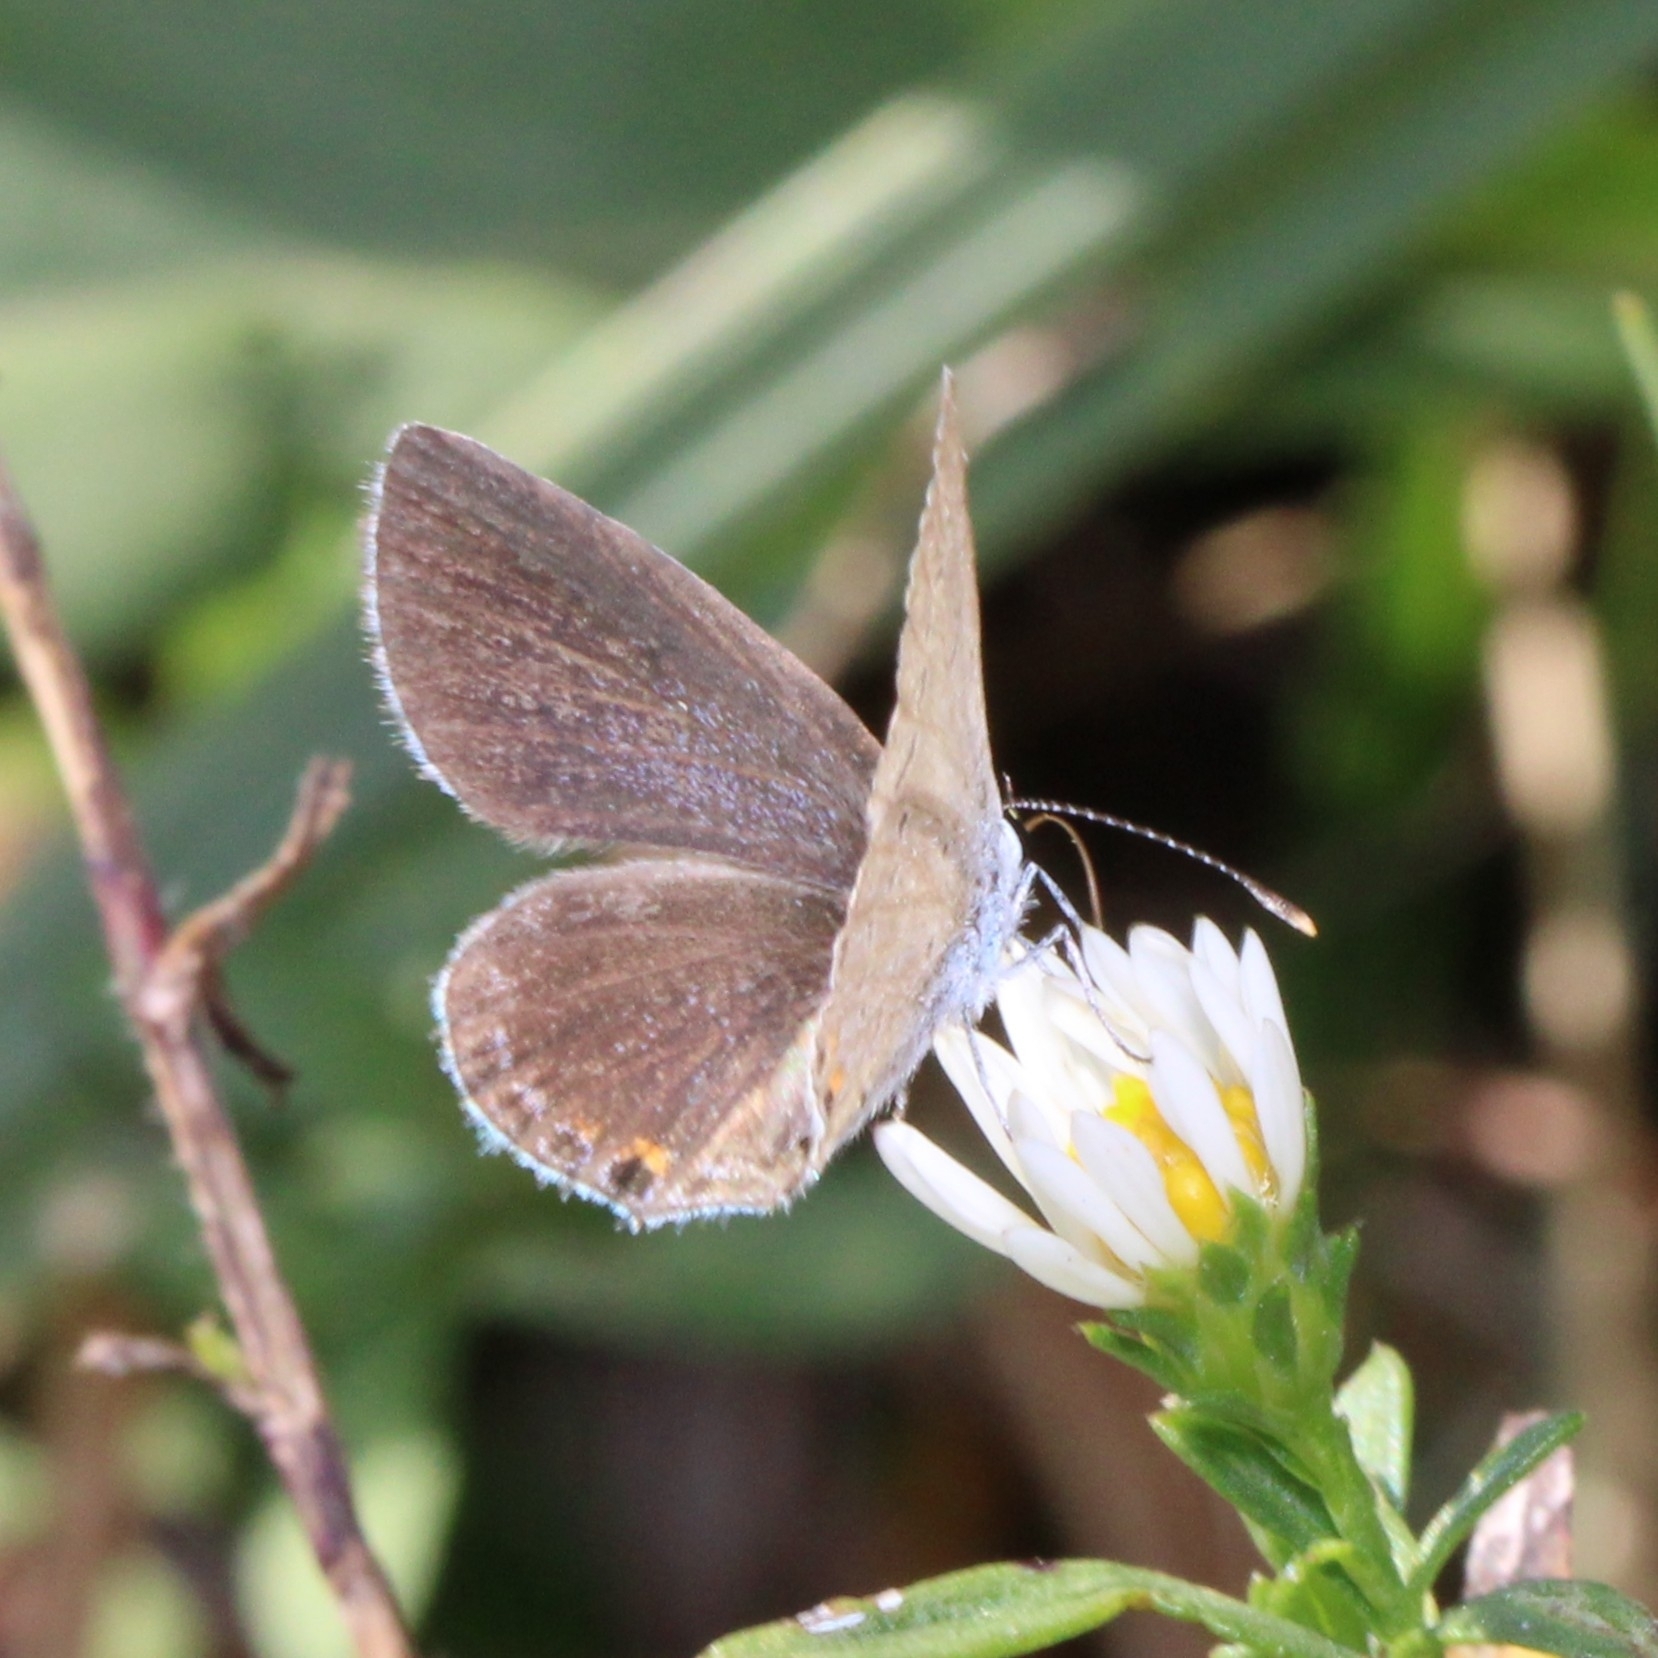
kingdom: Animalia
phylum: Arthropoda
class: Insecta
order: Lepidoptera
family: Lycaenidae
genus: Elkalyce
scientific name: Elkalyce comyntas
